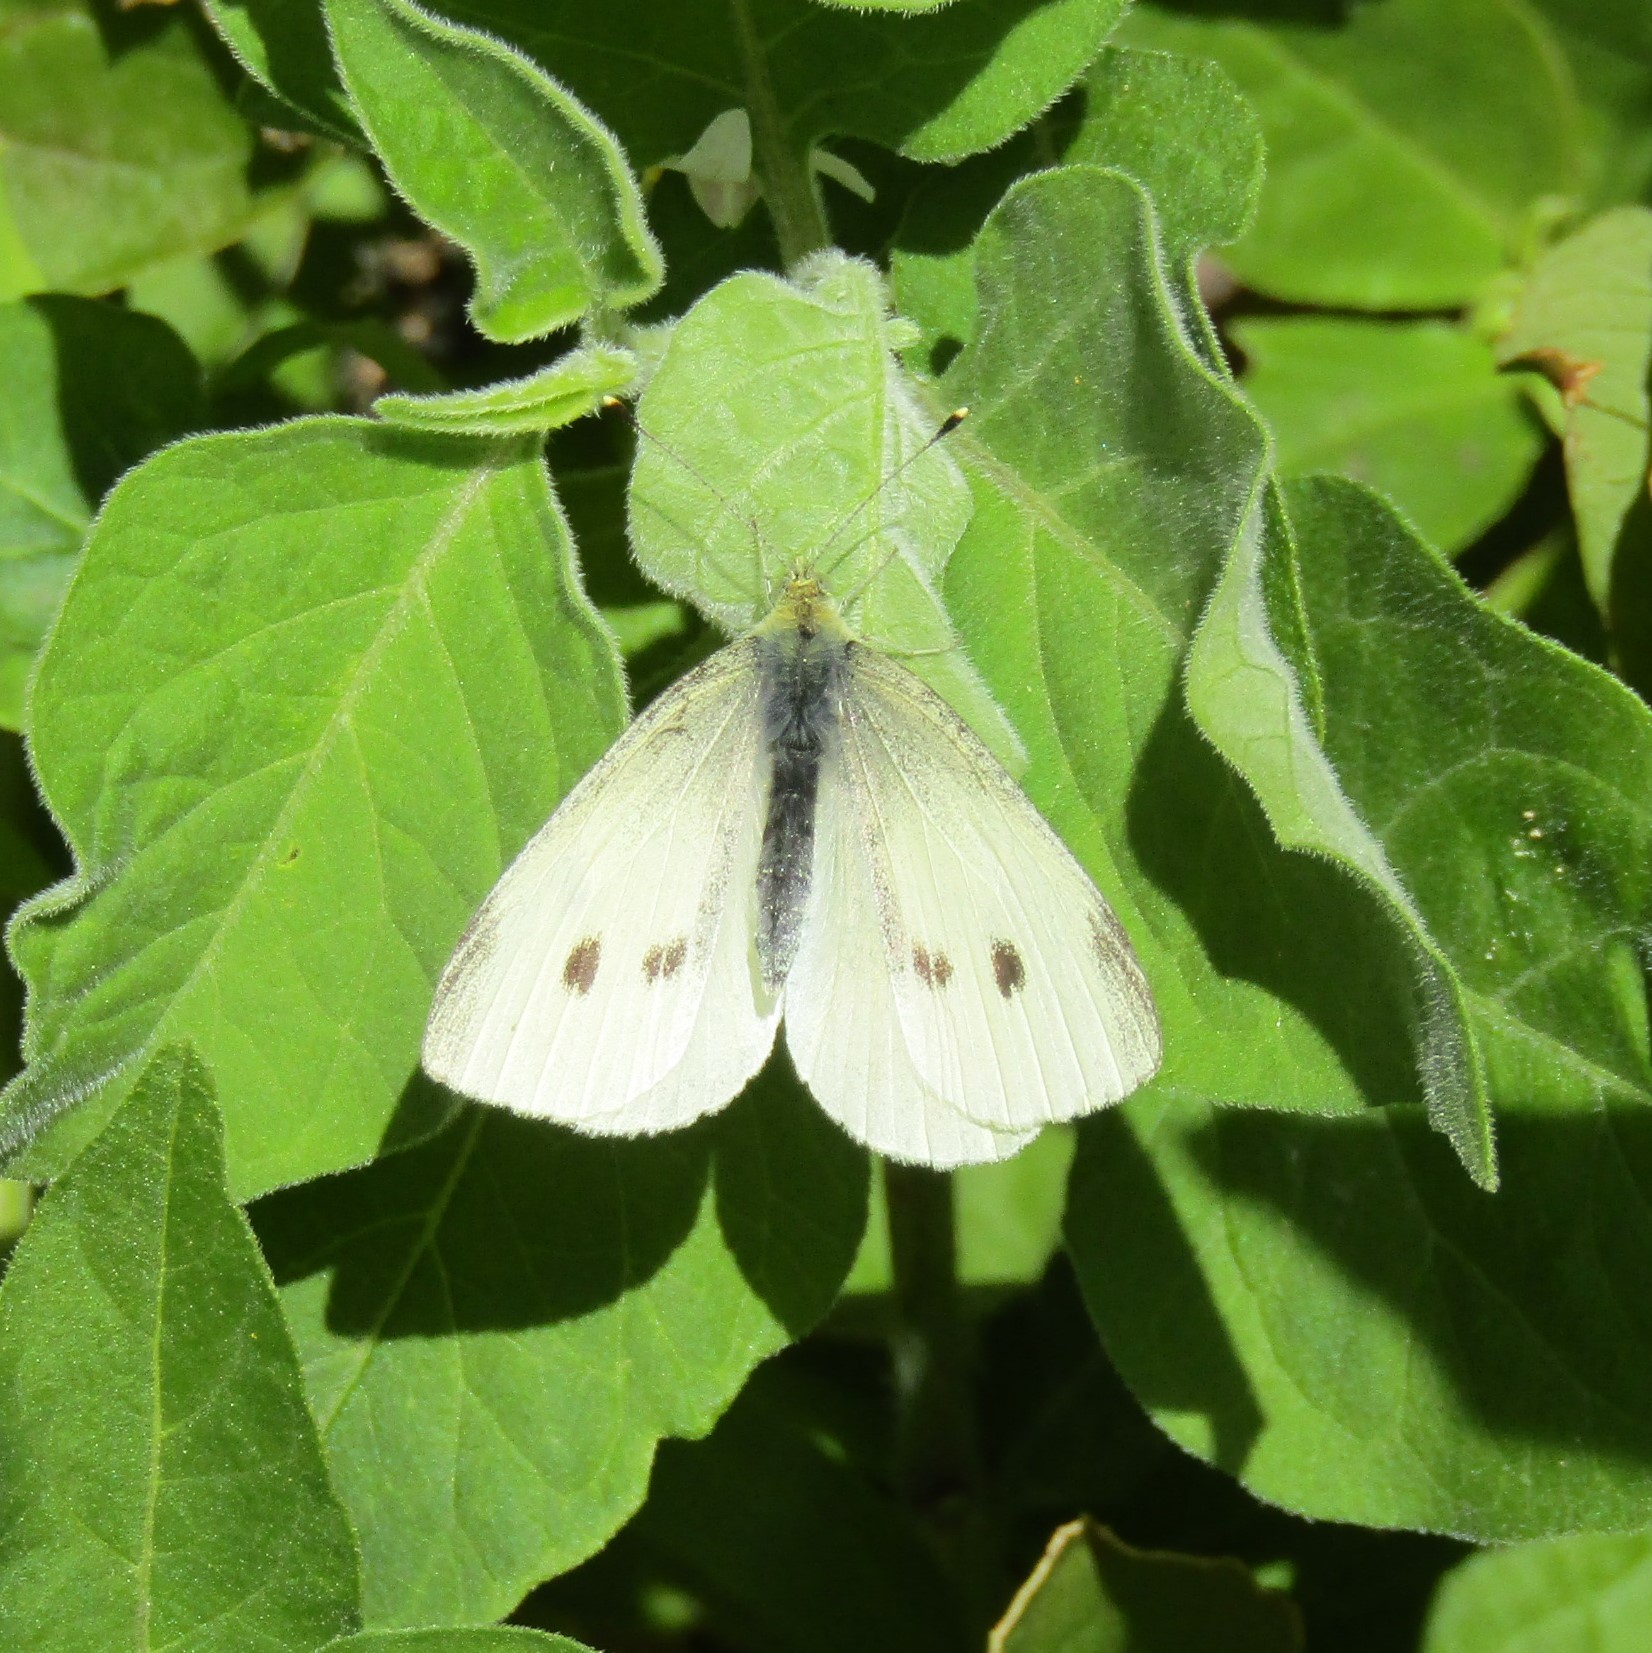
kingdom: Animalia
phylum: Arthropoda
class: Insecta
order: Lepidoptera
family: Pieridae
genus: Pieris
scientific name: Pieris rapae
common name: Small white
